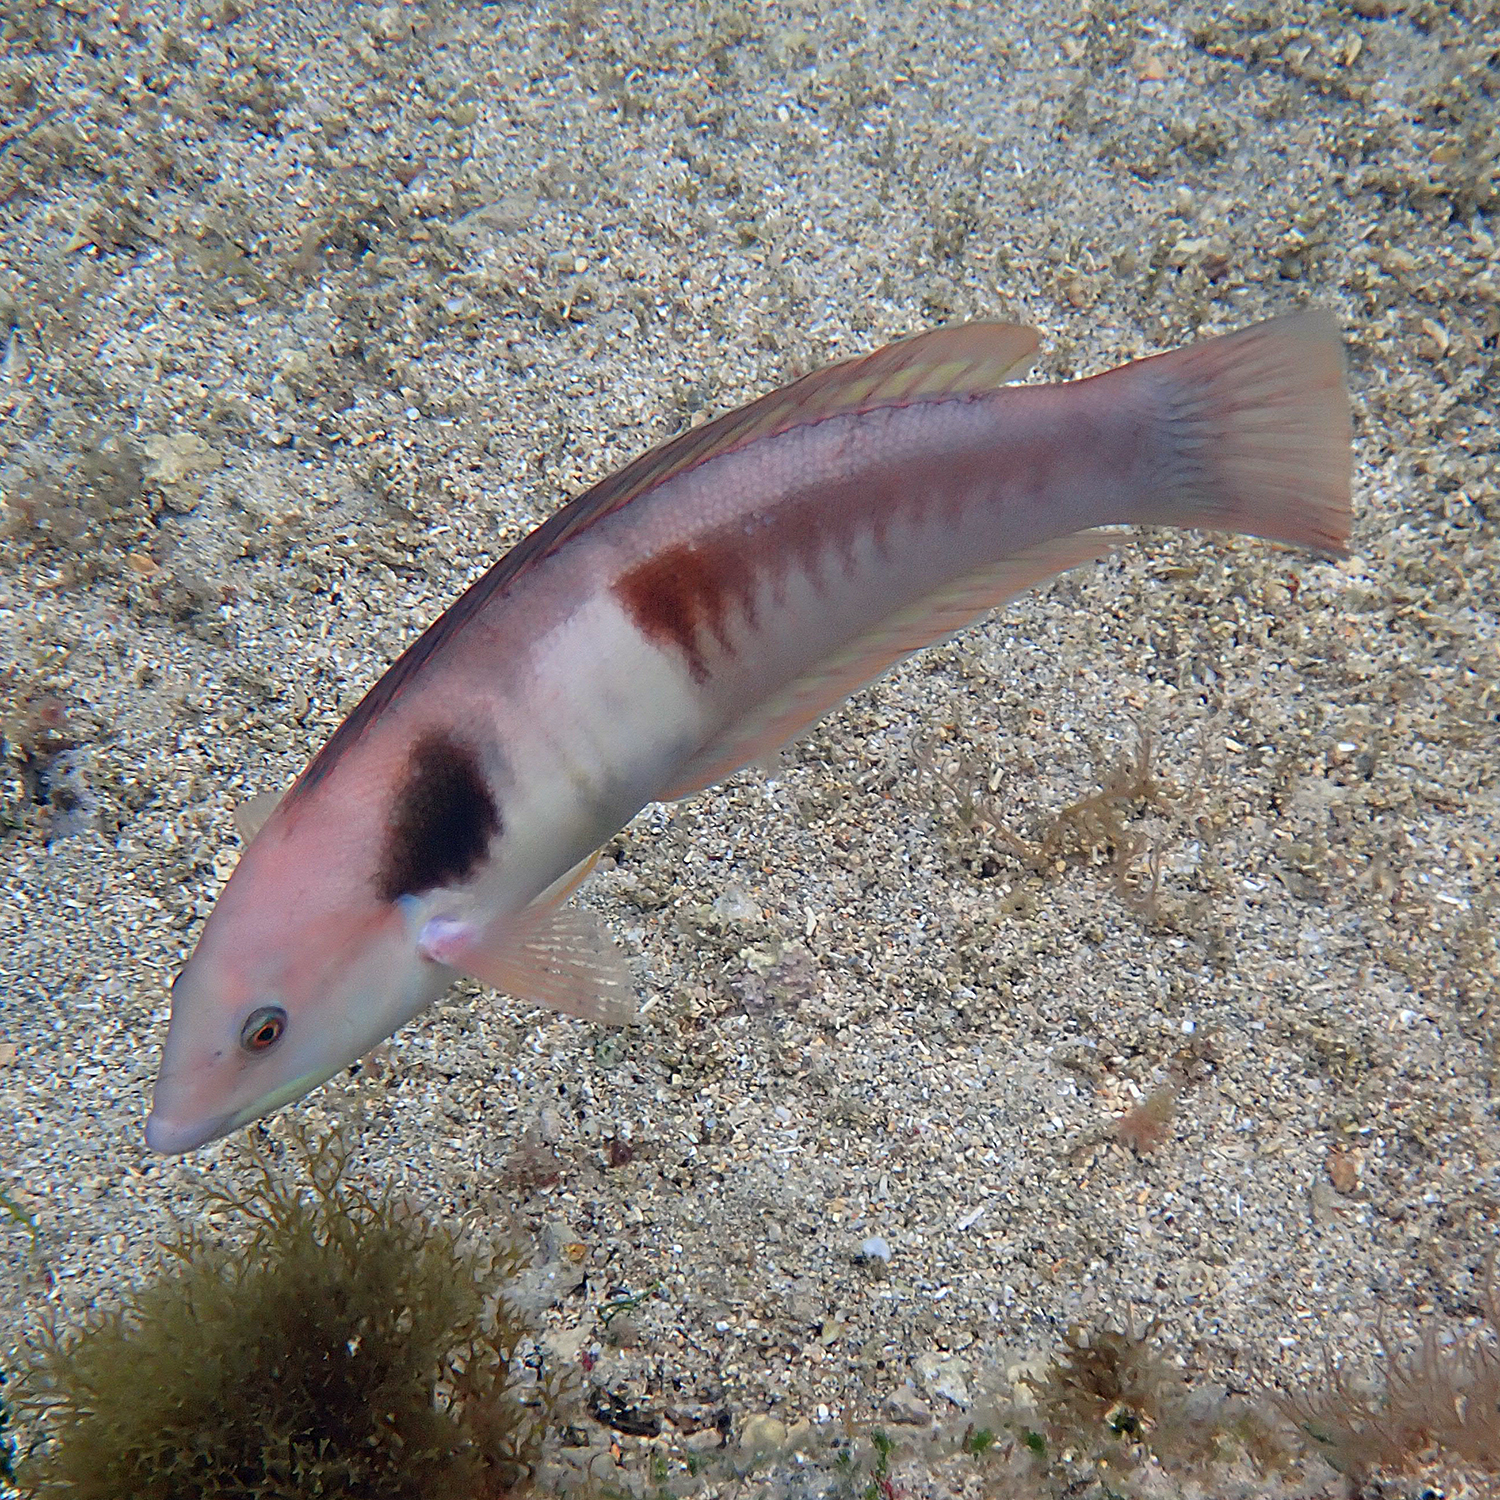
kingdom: Animalia
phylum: Chordata
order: Perciformes
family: Labridae
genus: Coris
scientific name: Coris sandeyeri
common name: Sandager's wrasse
